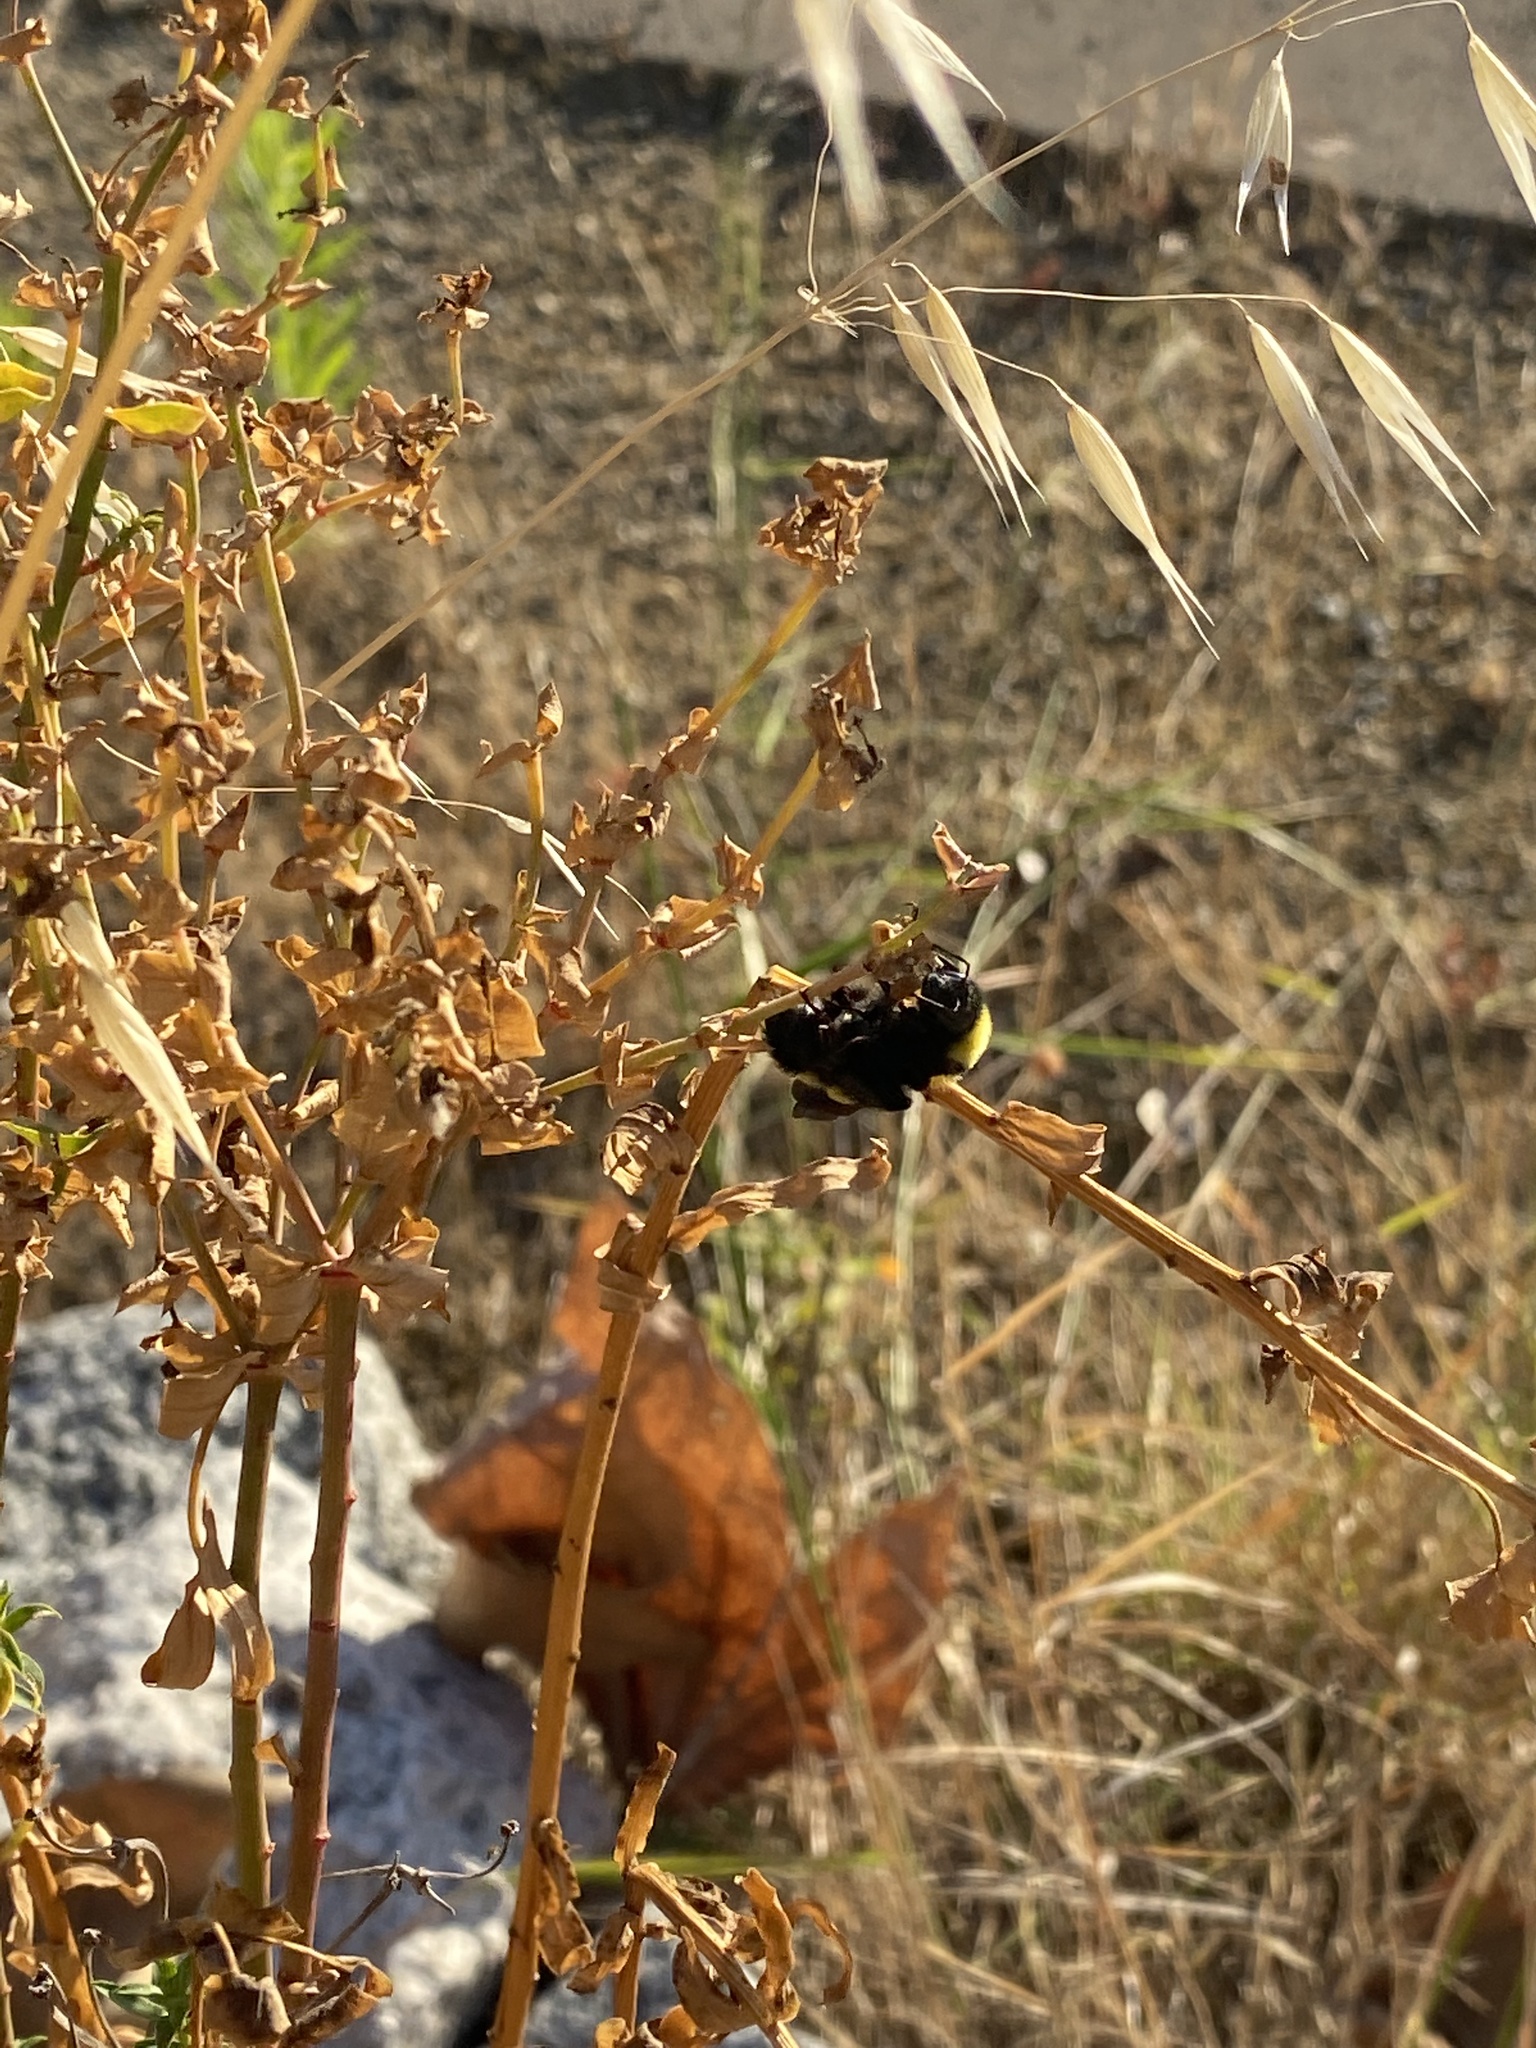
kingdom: Animalia
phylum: Arthropoda
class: Insecta
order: Hymenoptera
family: Apidae
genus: Bombus
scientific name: Bombus sonorus
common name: Sonoran bumble bee
